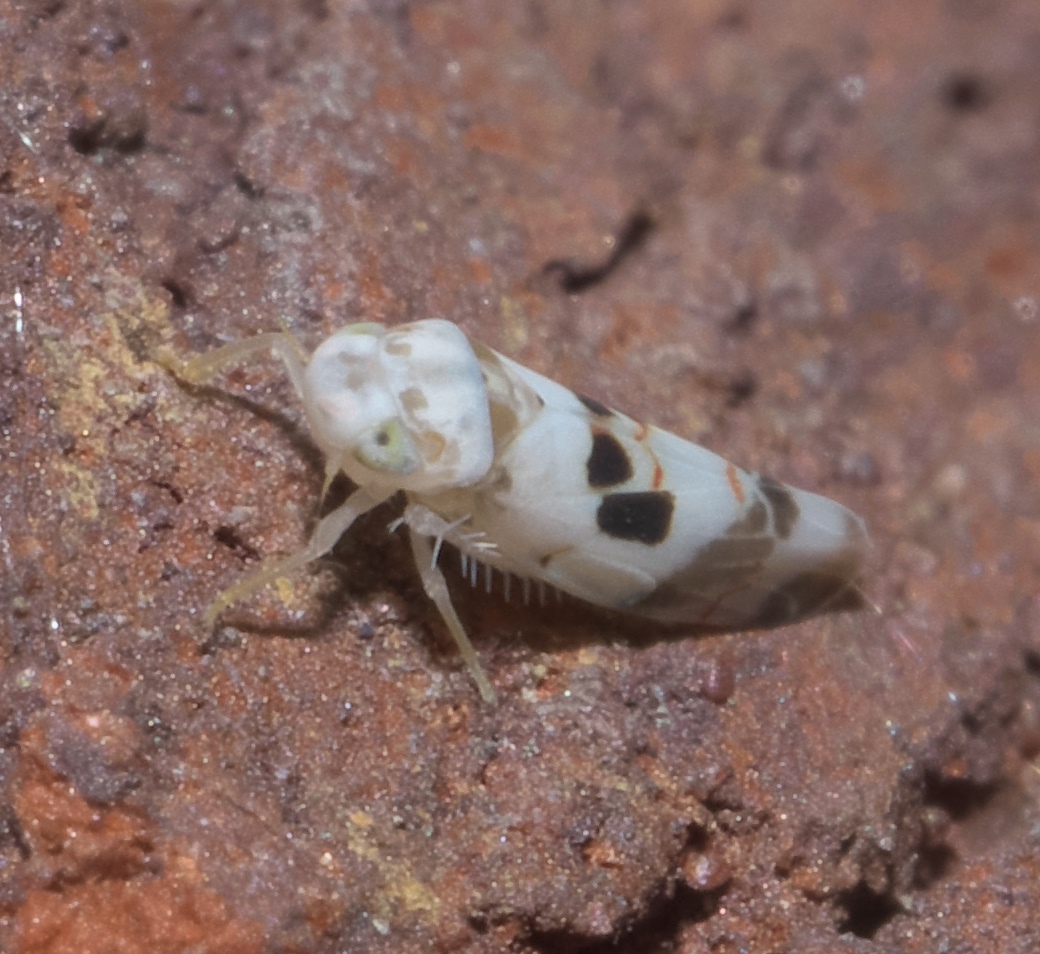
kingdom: Animalia
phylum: Arthropoda
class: Insecta
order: Hemiptera
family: Cicadellidae
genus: Eratoneura
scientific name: Eratoneura hymettana
